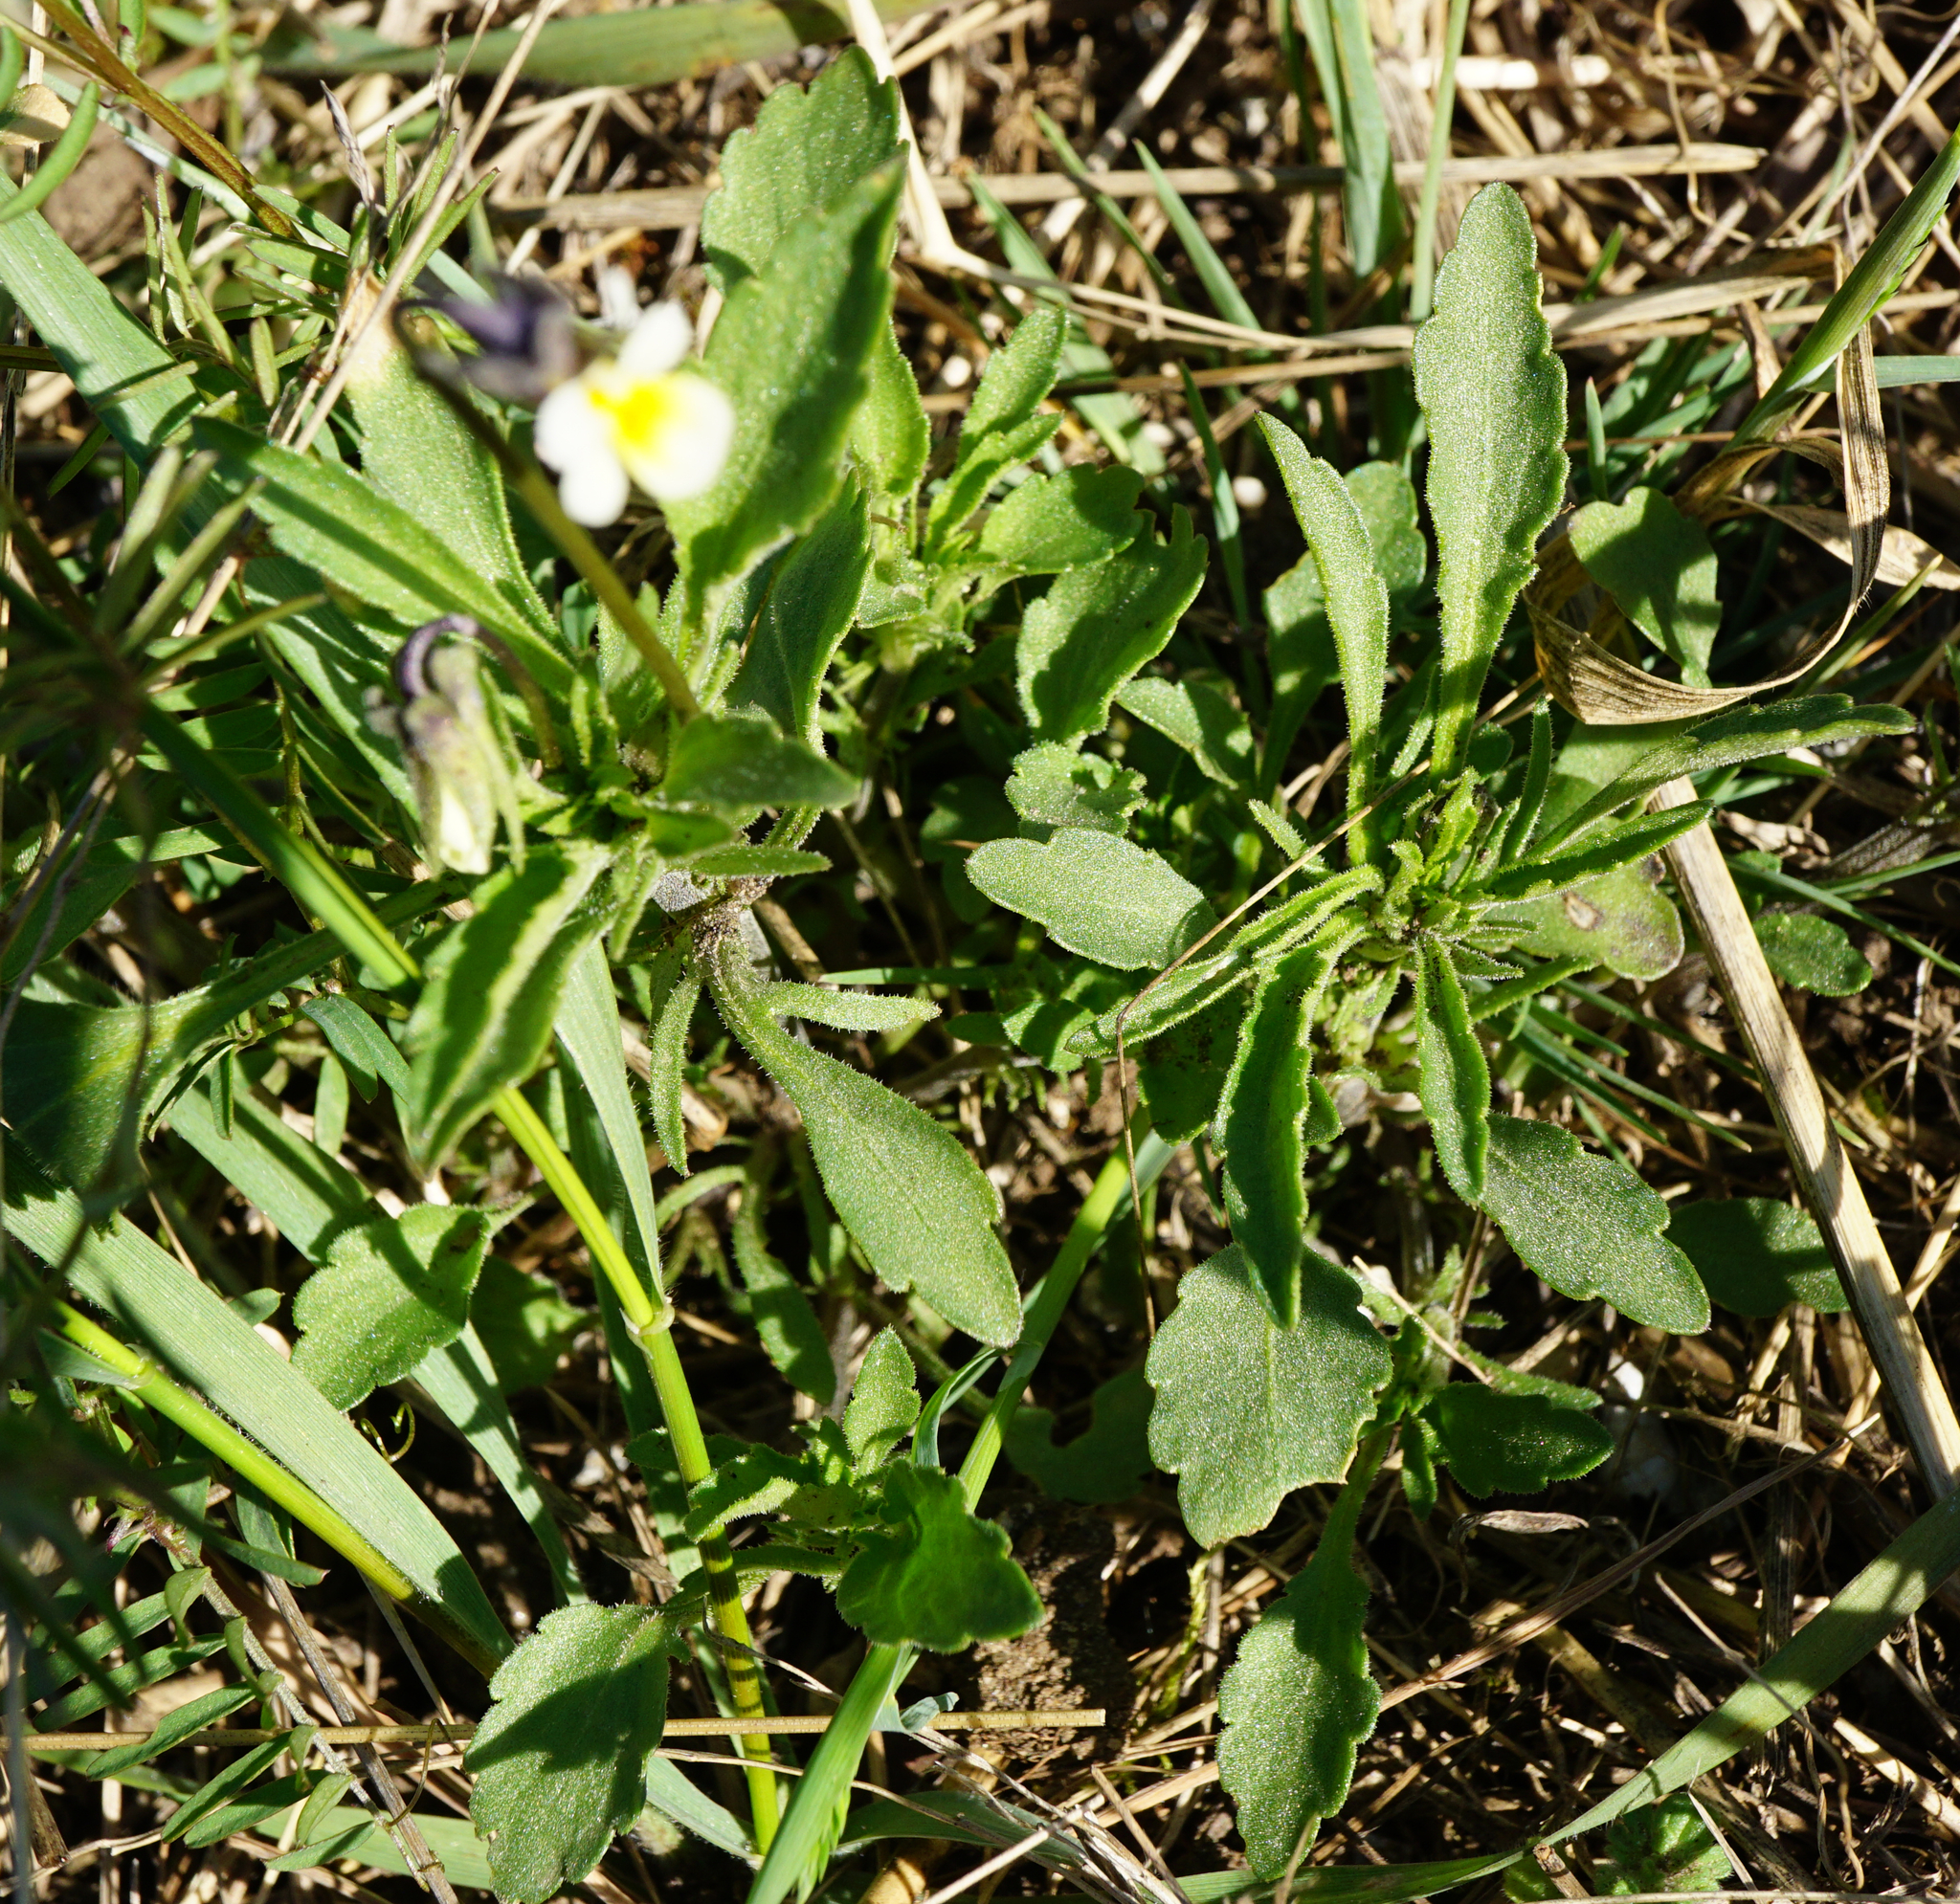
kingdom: Plantae
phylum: Tracheophyta
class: Magnoliopsida
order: Malpighiales
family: Violaceae
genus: Viola
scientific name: Viola arvensis
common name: Field pansy
